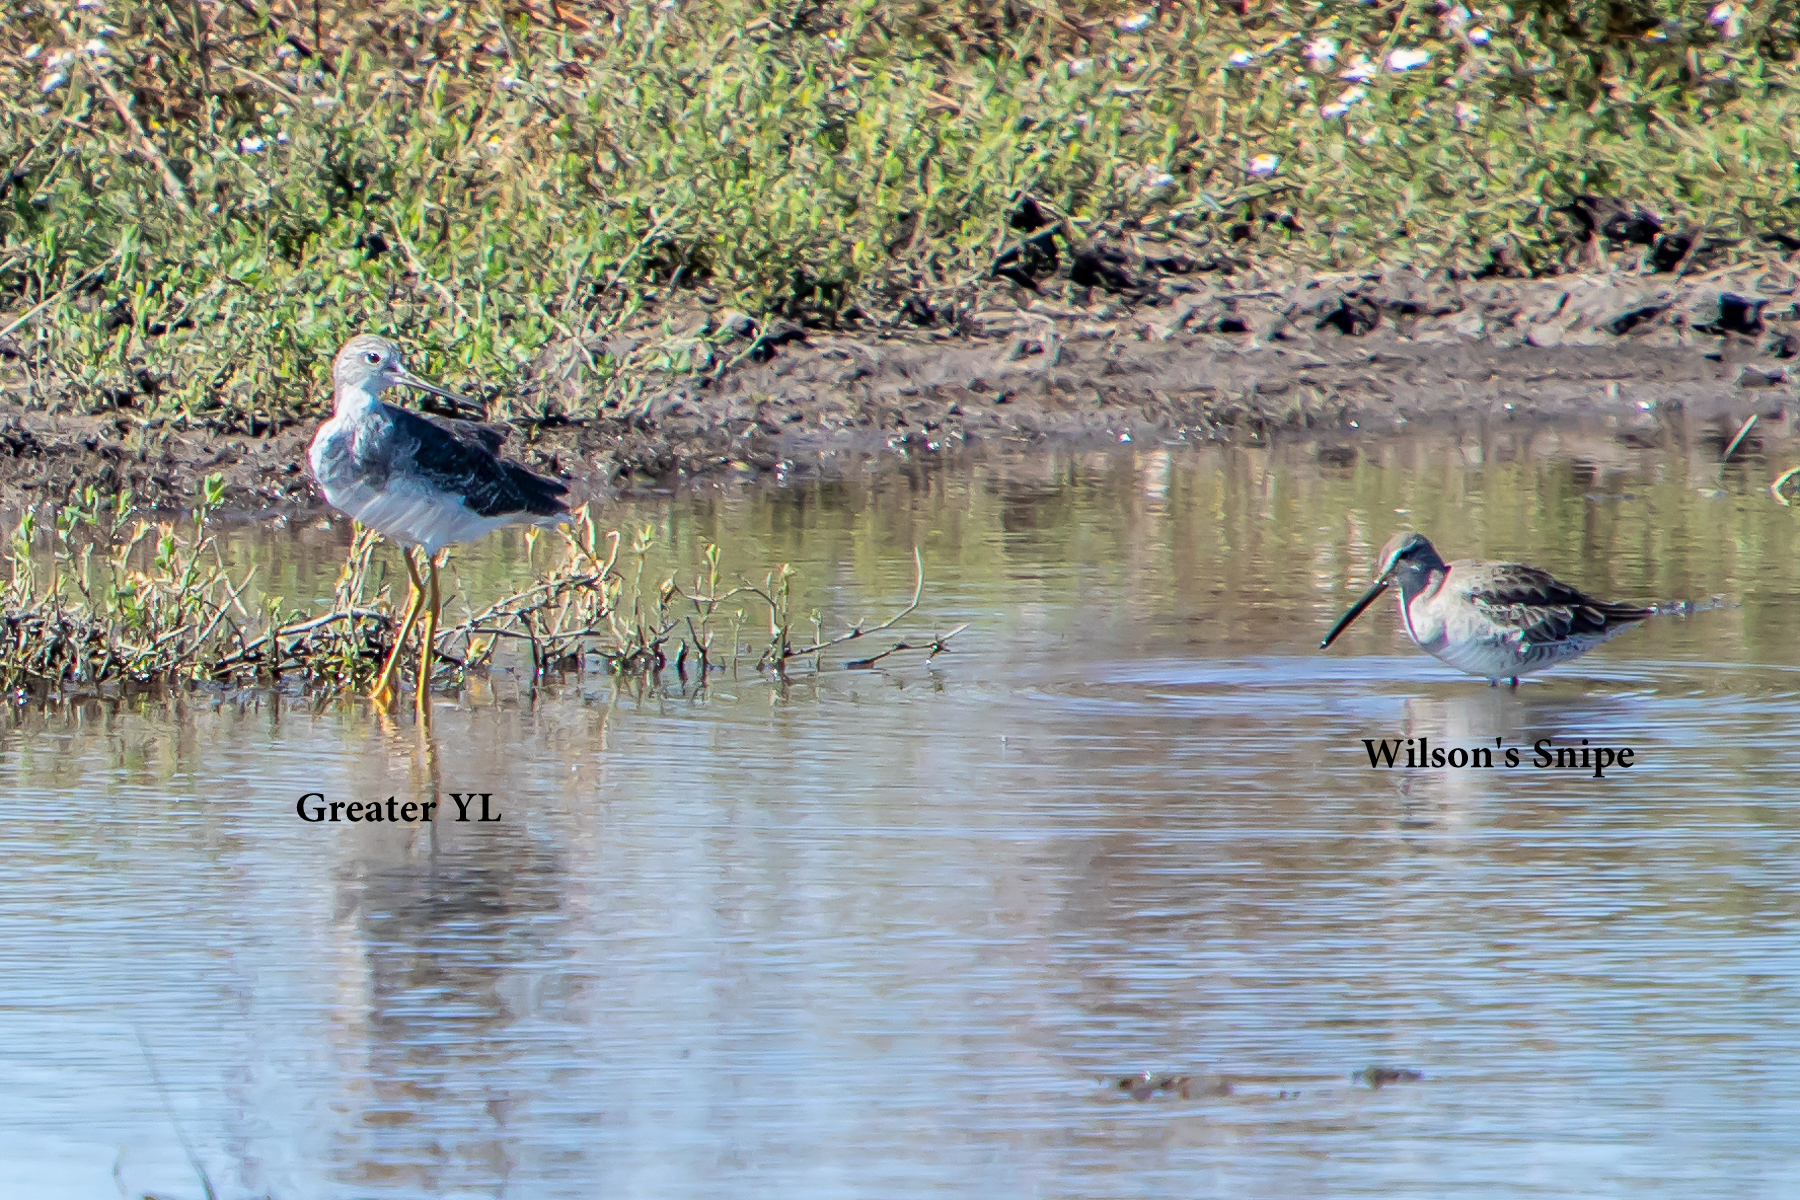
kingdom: Animalia
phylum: Chordata
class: Aves
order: Charadriiformes
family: Scolopacidae
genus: Tringa
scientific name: Tringa melanoleuca
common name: Greater yellowlegs
